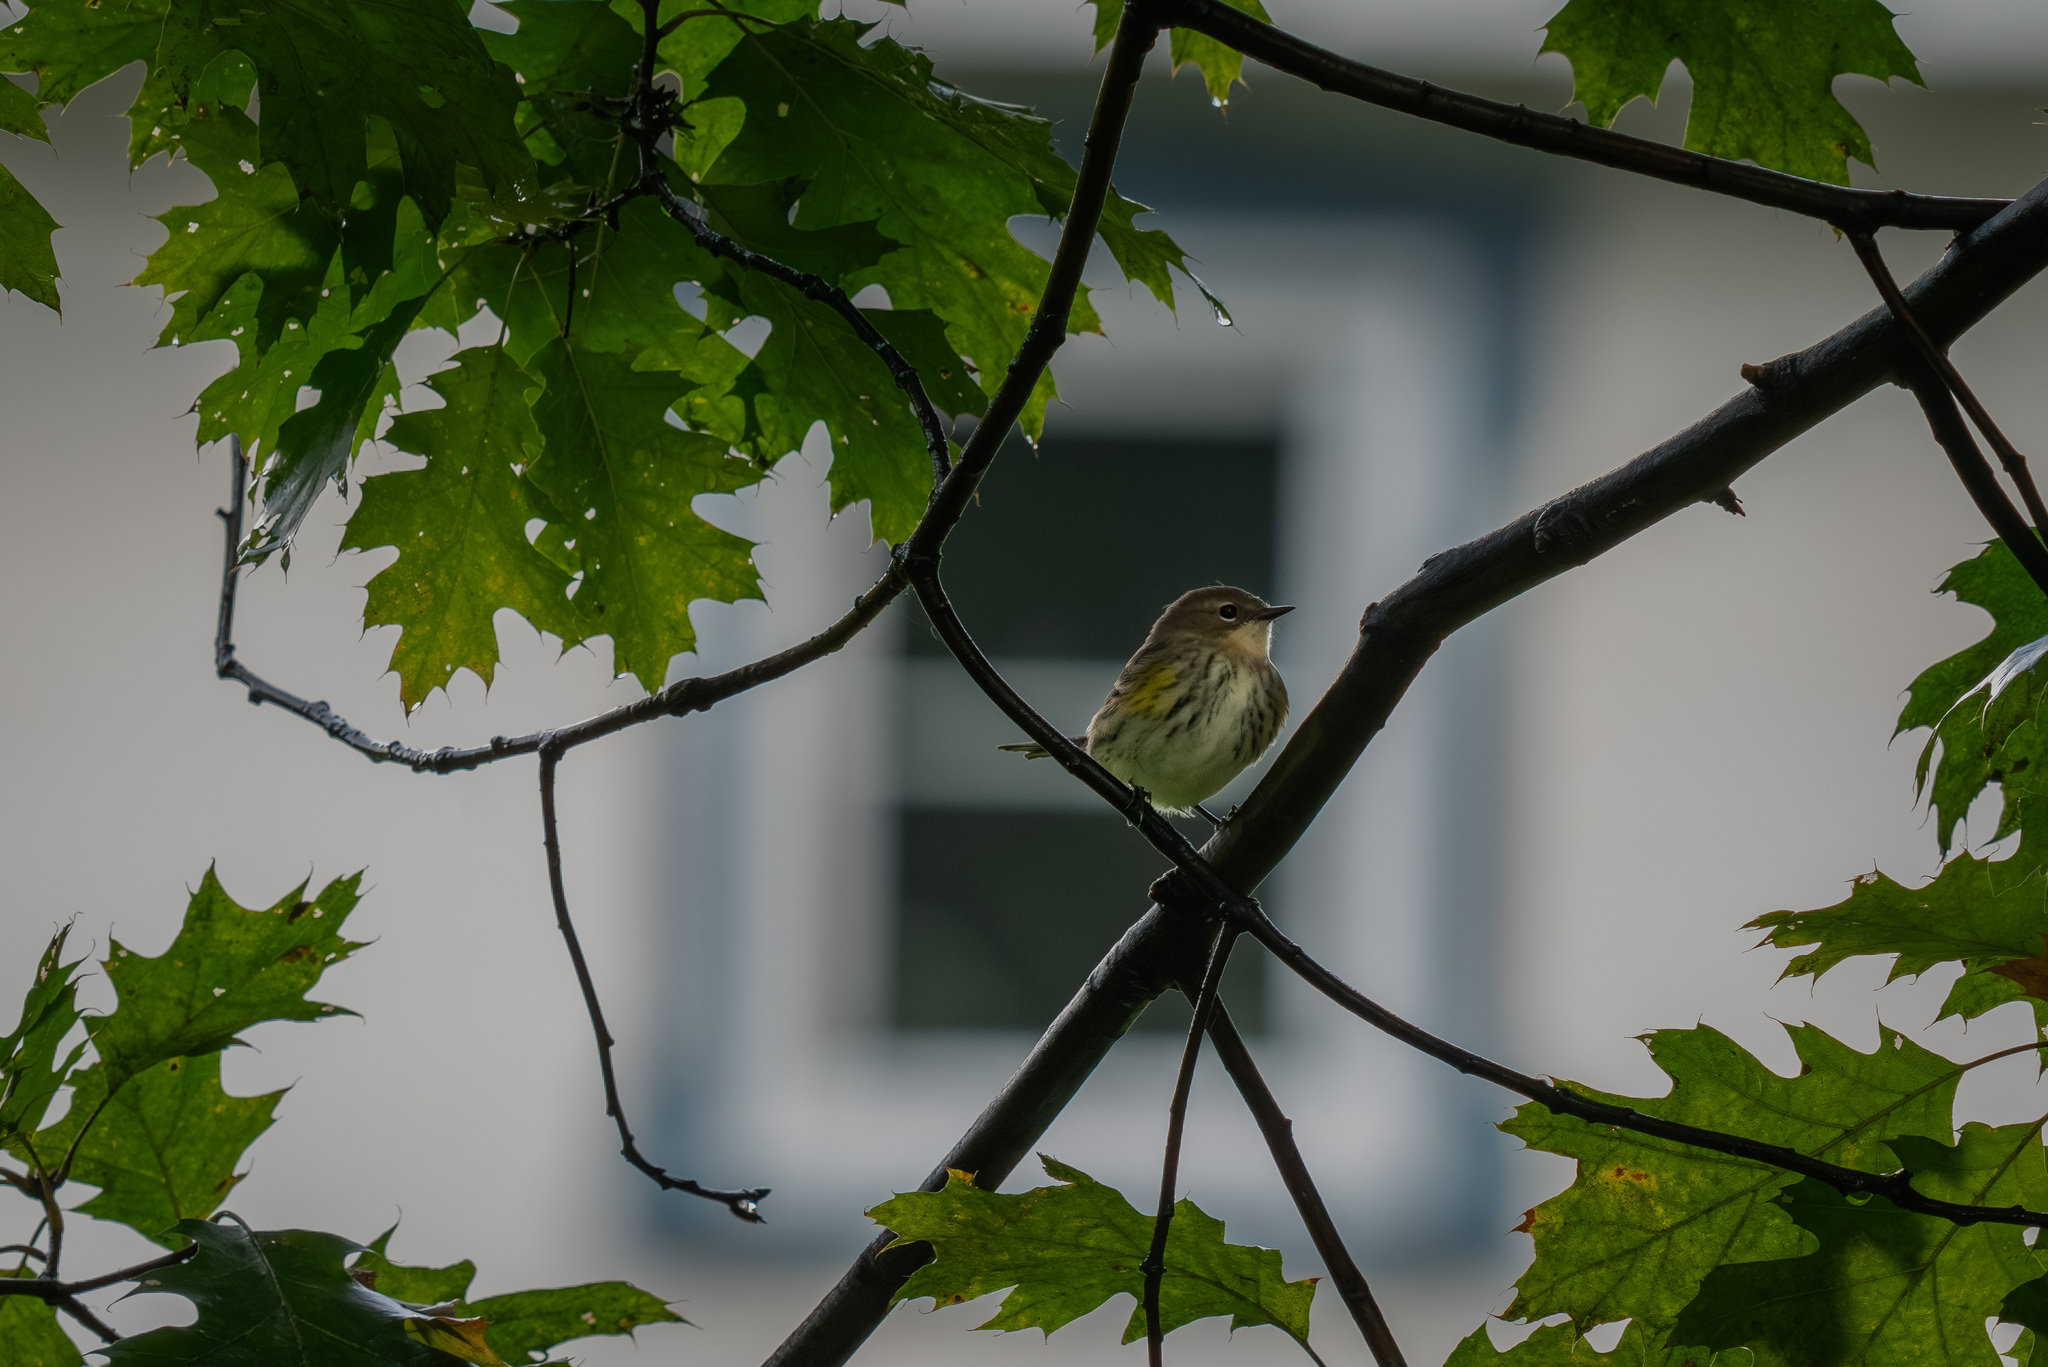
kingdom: Animalia
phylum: Chordata
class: Aves
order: Passeriformes
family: Parulidae
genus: Setophaga
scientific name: Setophaga coronata
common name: Myrtle warbler
